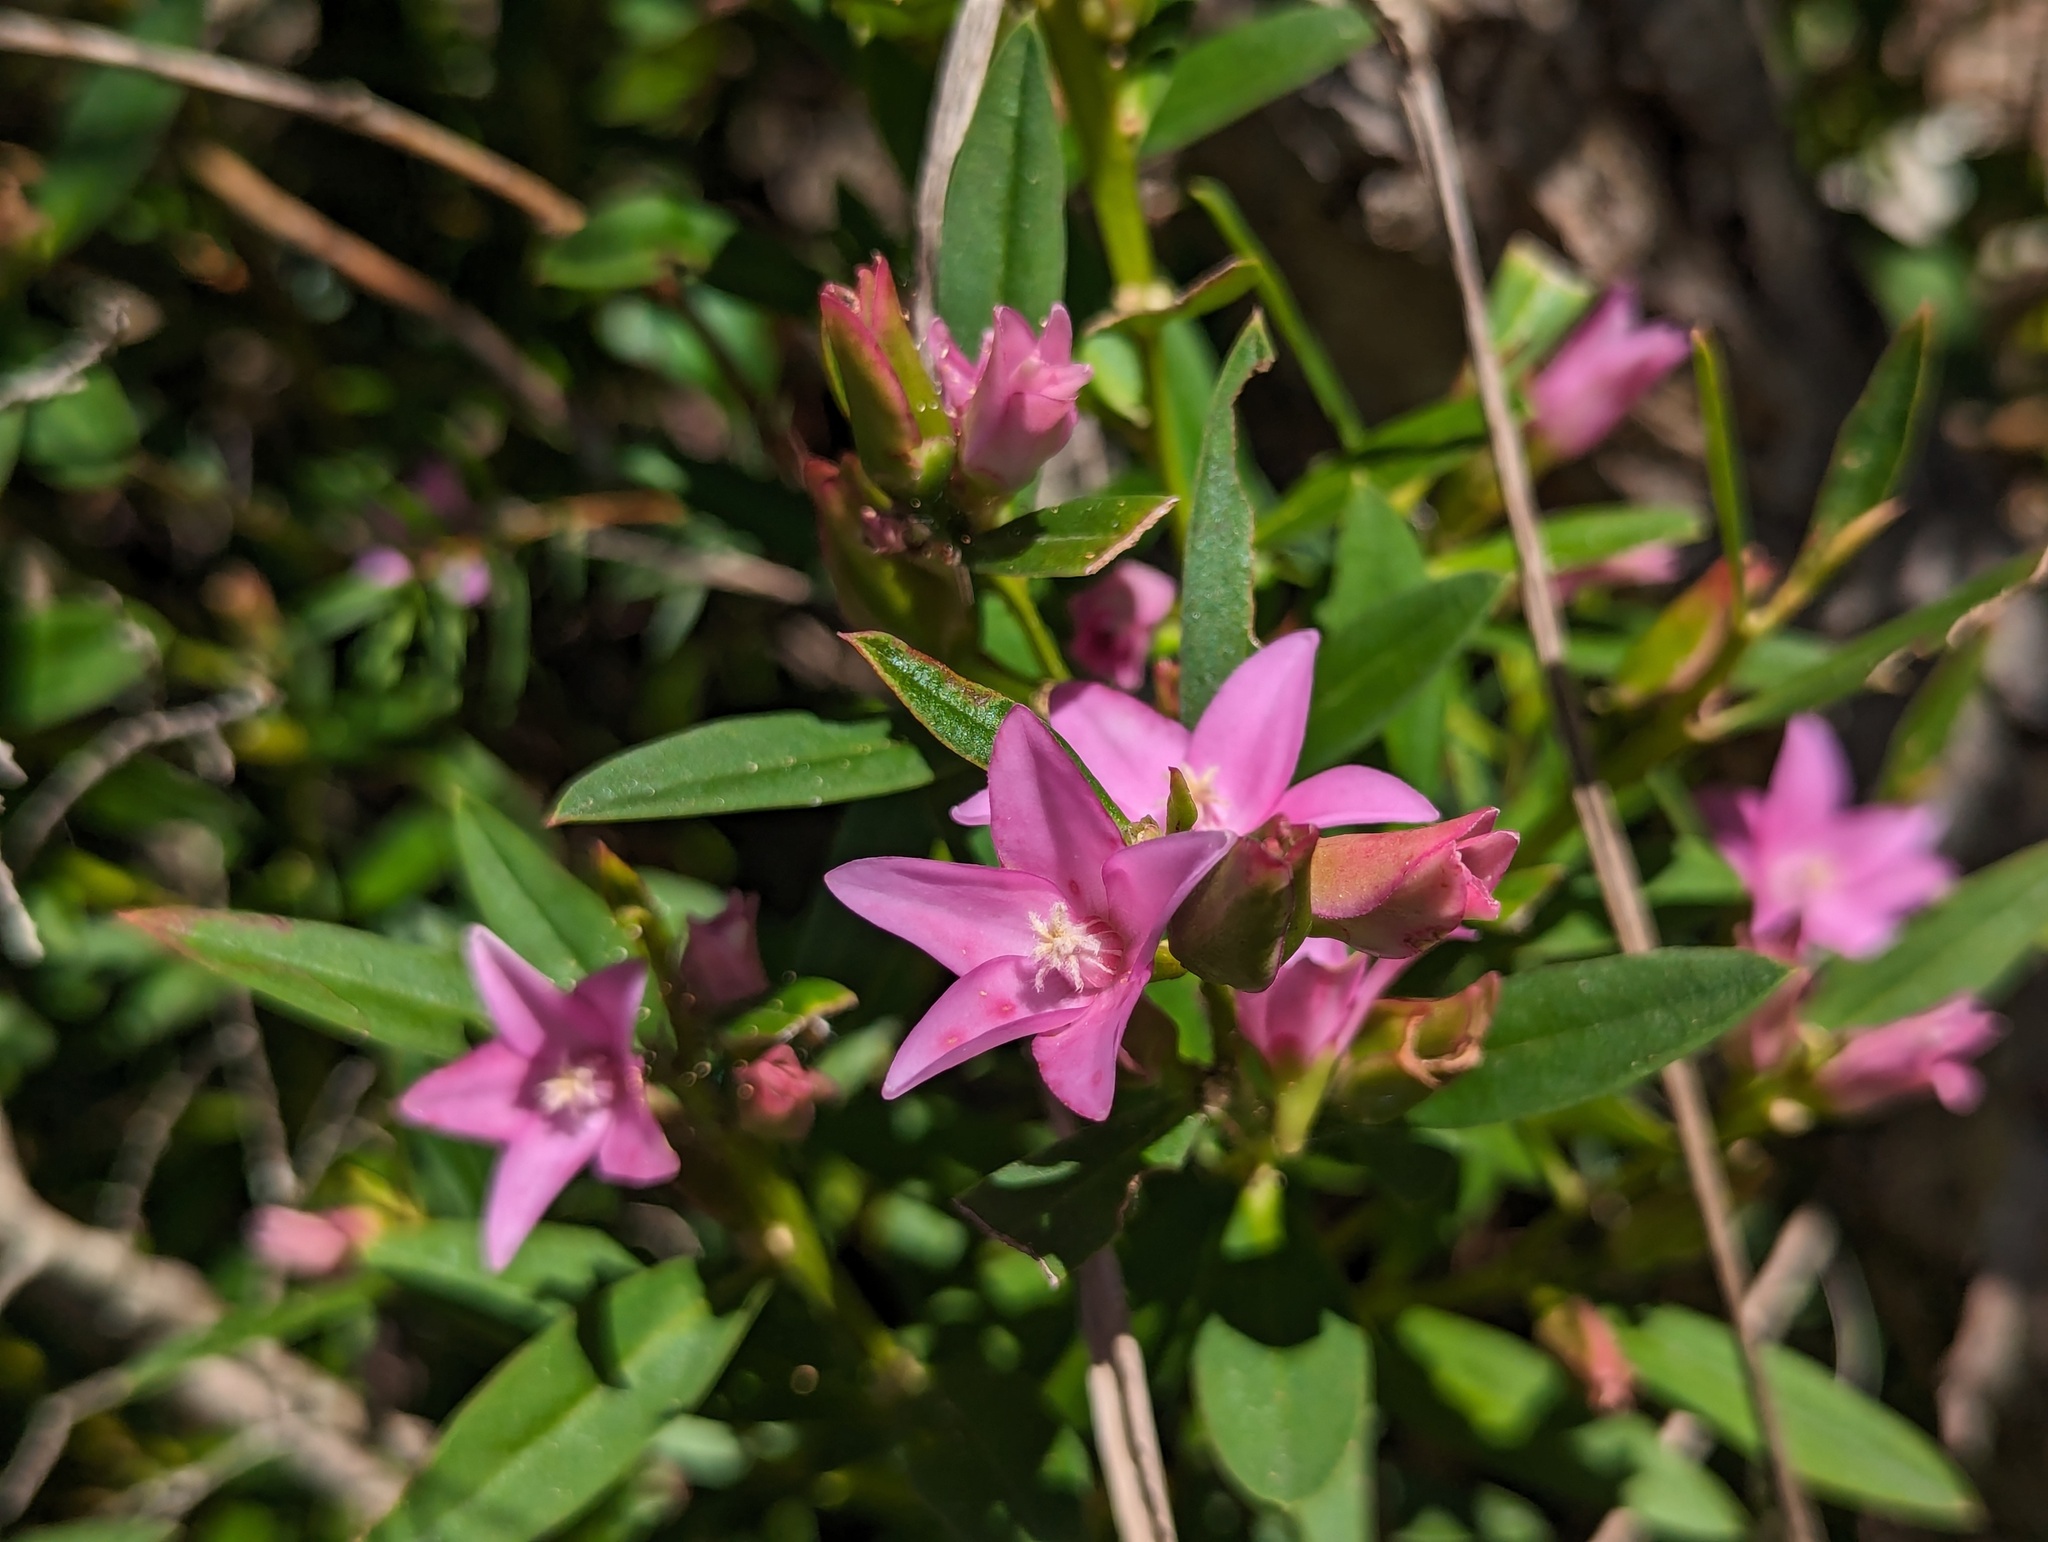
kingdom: Plantae
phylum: Tracheophyta
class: Magnoliopsida
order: Sapindales
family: Rutaceae
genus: Crowea
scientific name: Crowea saligna
